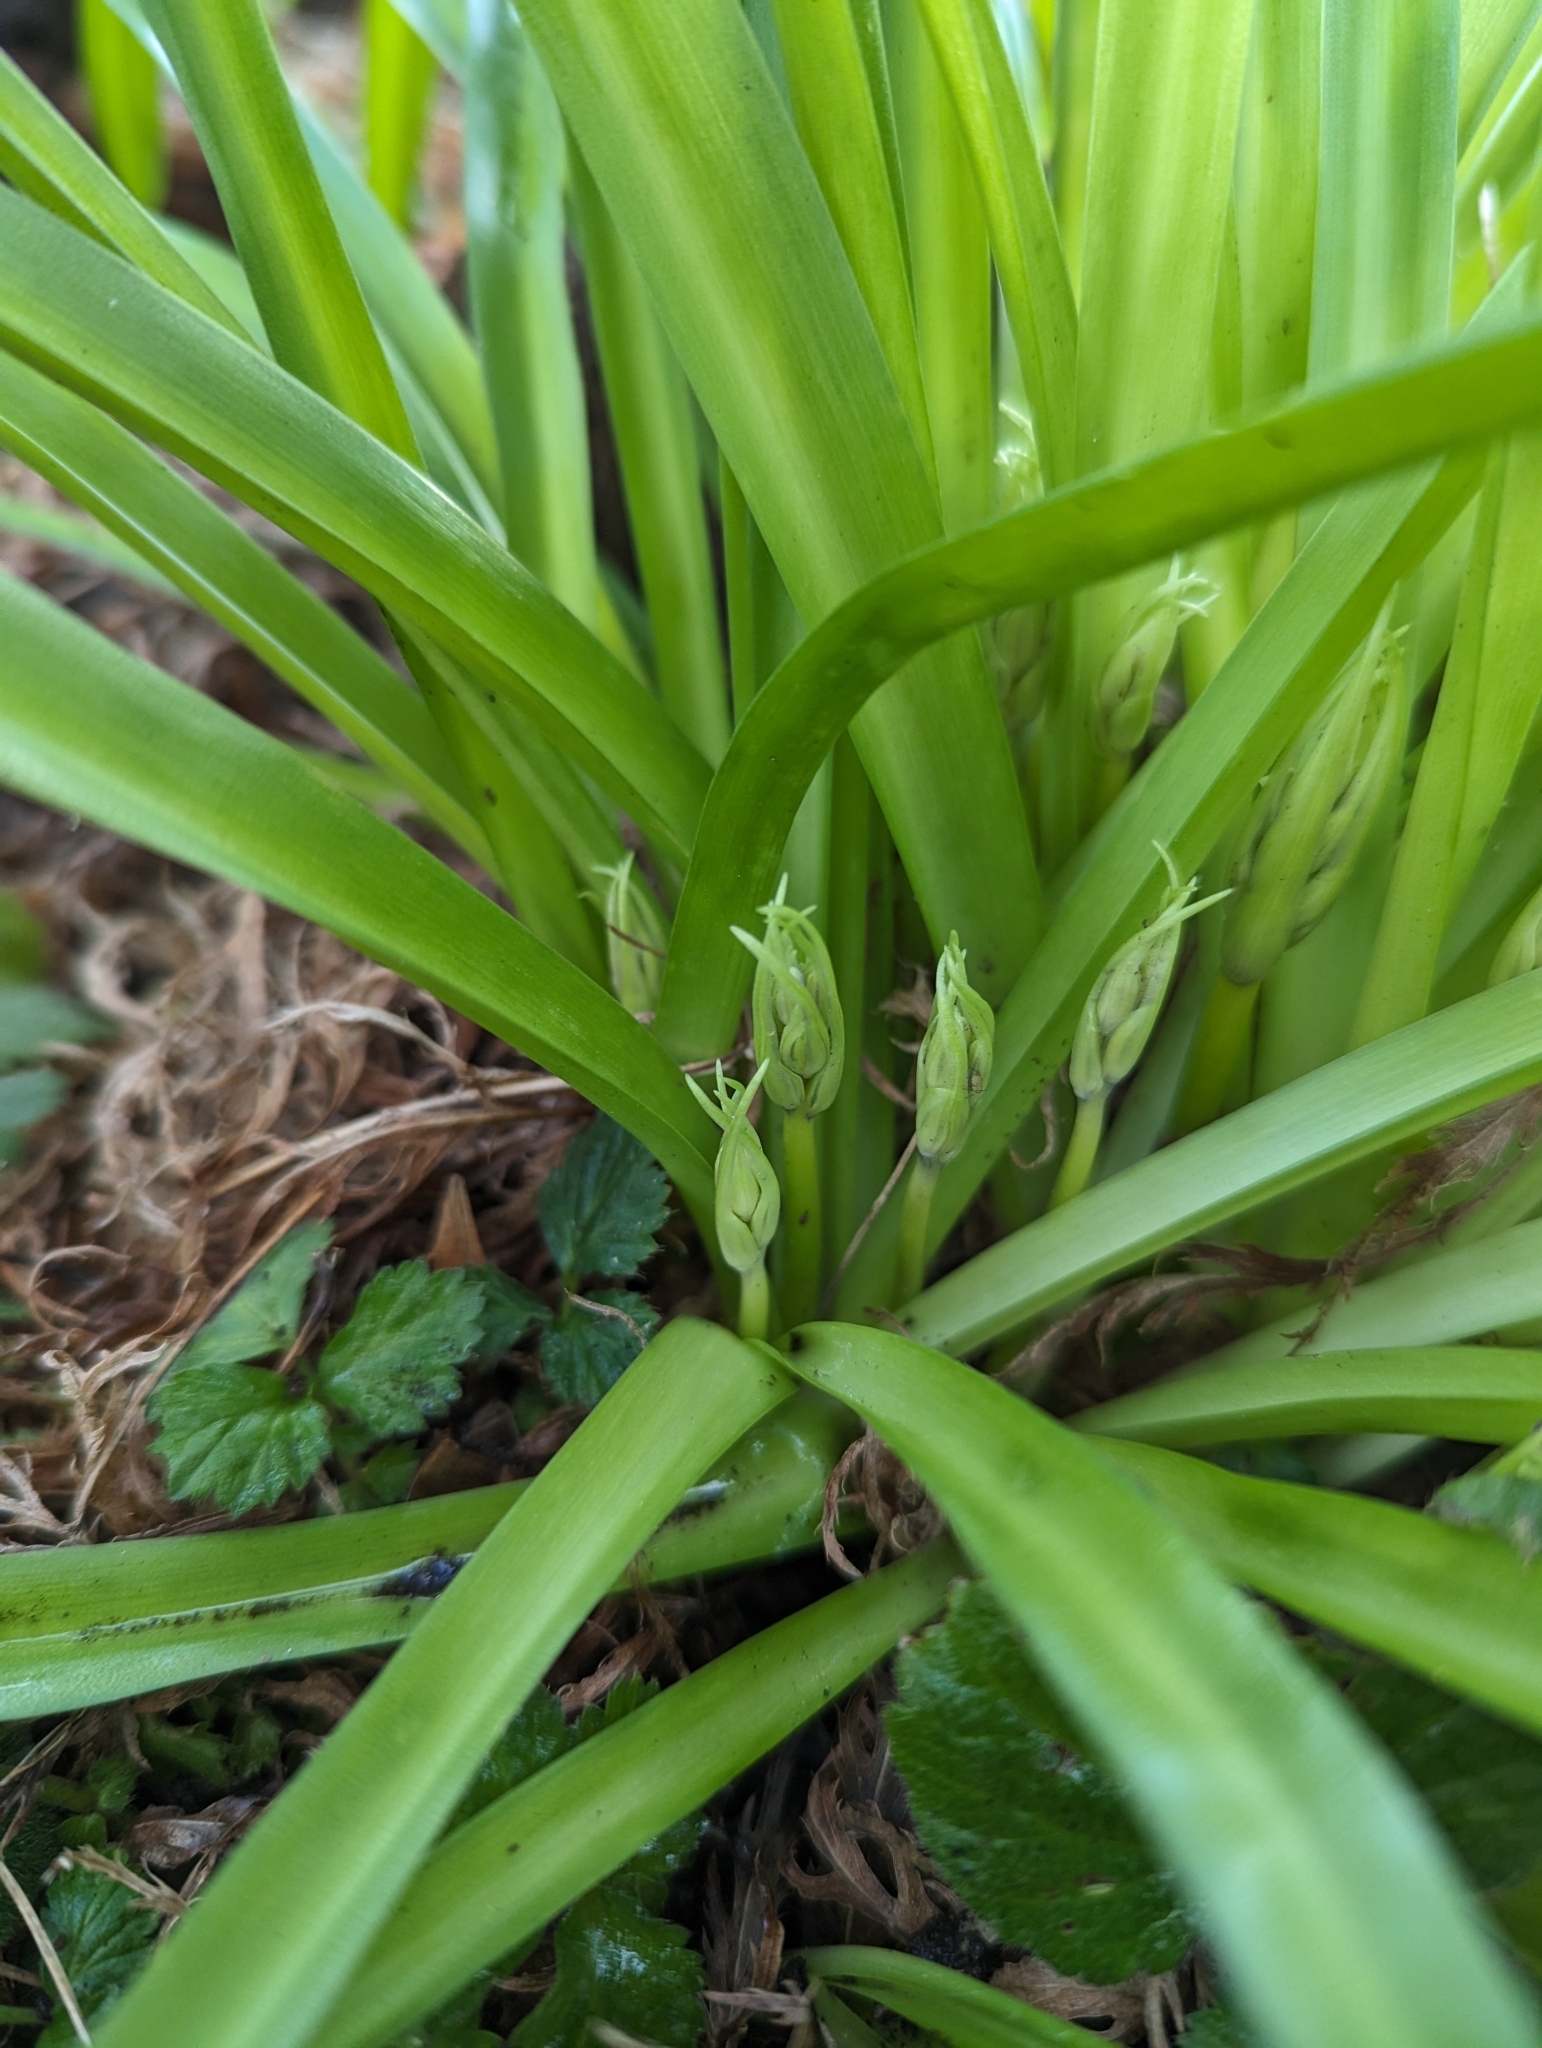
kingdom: Plantae
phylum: Tracheophyta
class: Liliopsida
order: Asparagales
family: Asparagaceae
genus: Hyacinthoides
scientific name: Hyacinthoides massartiana
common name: Hyacinthoides
